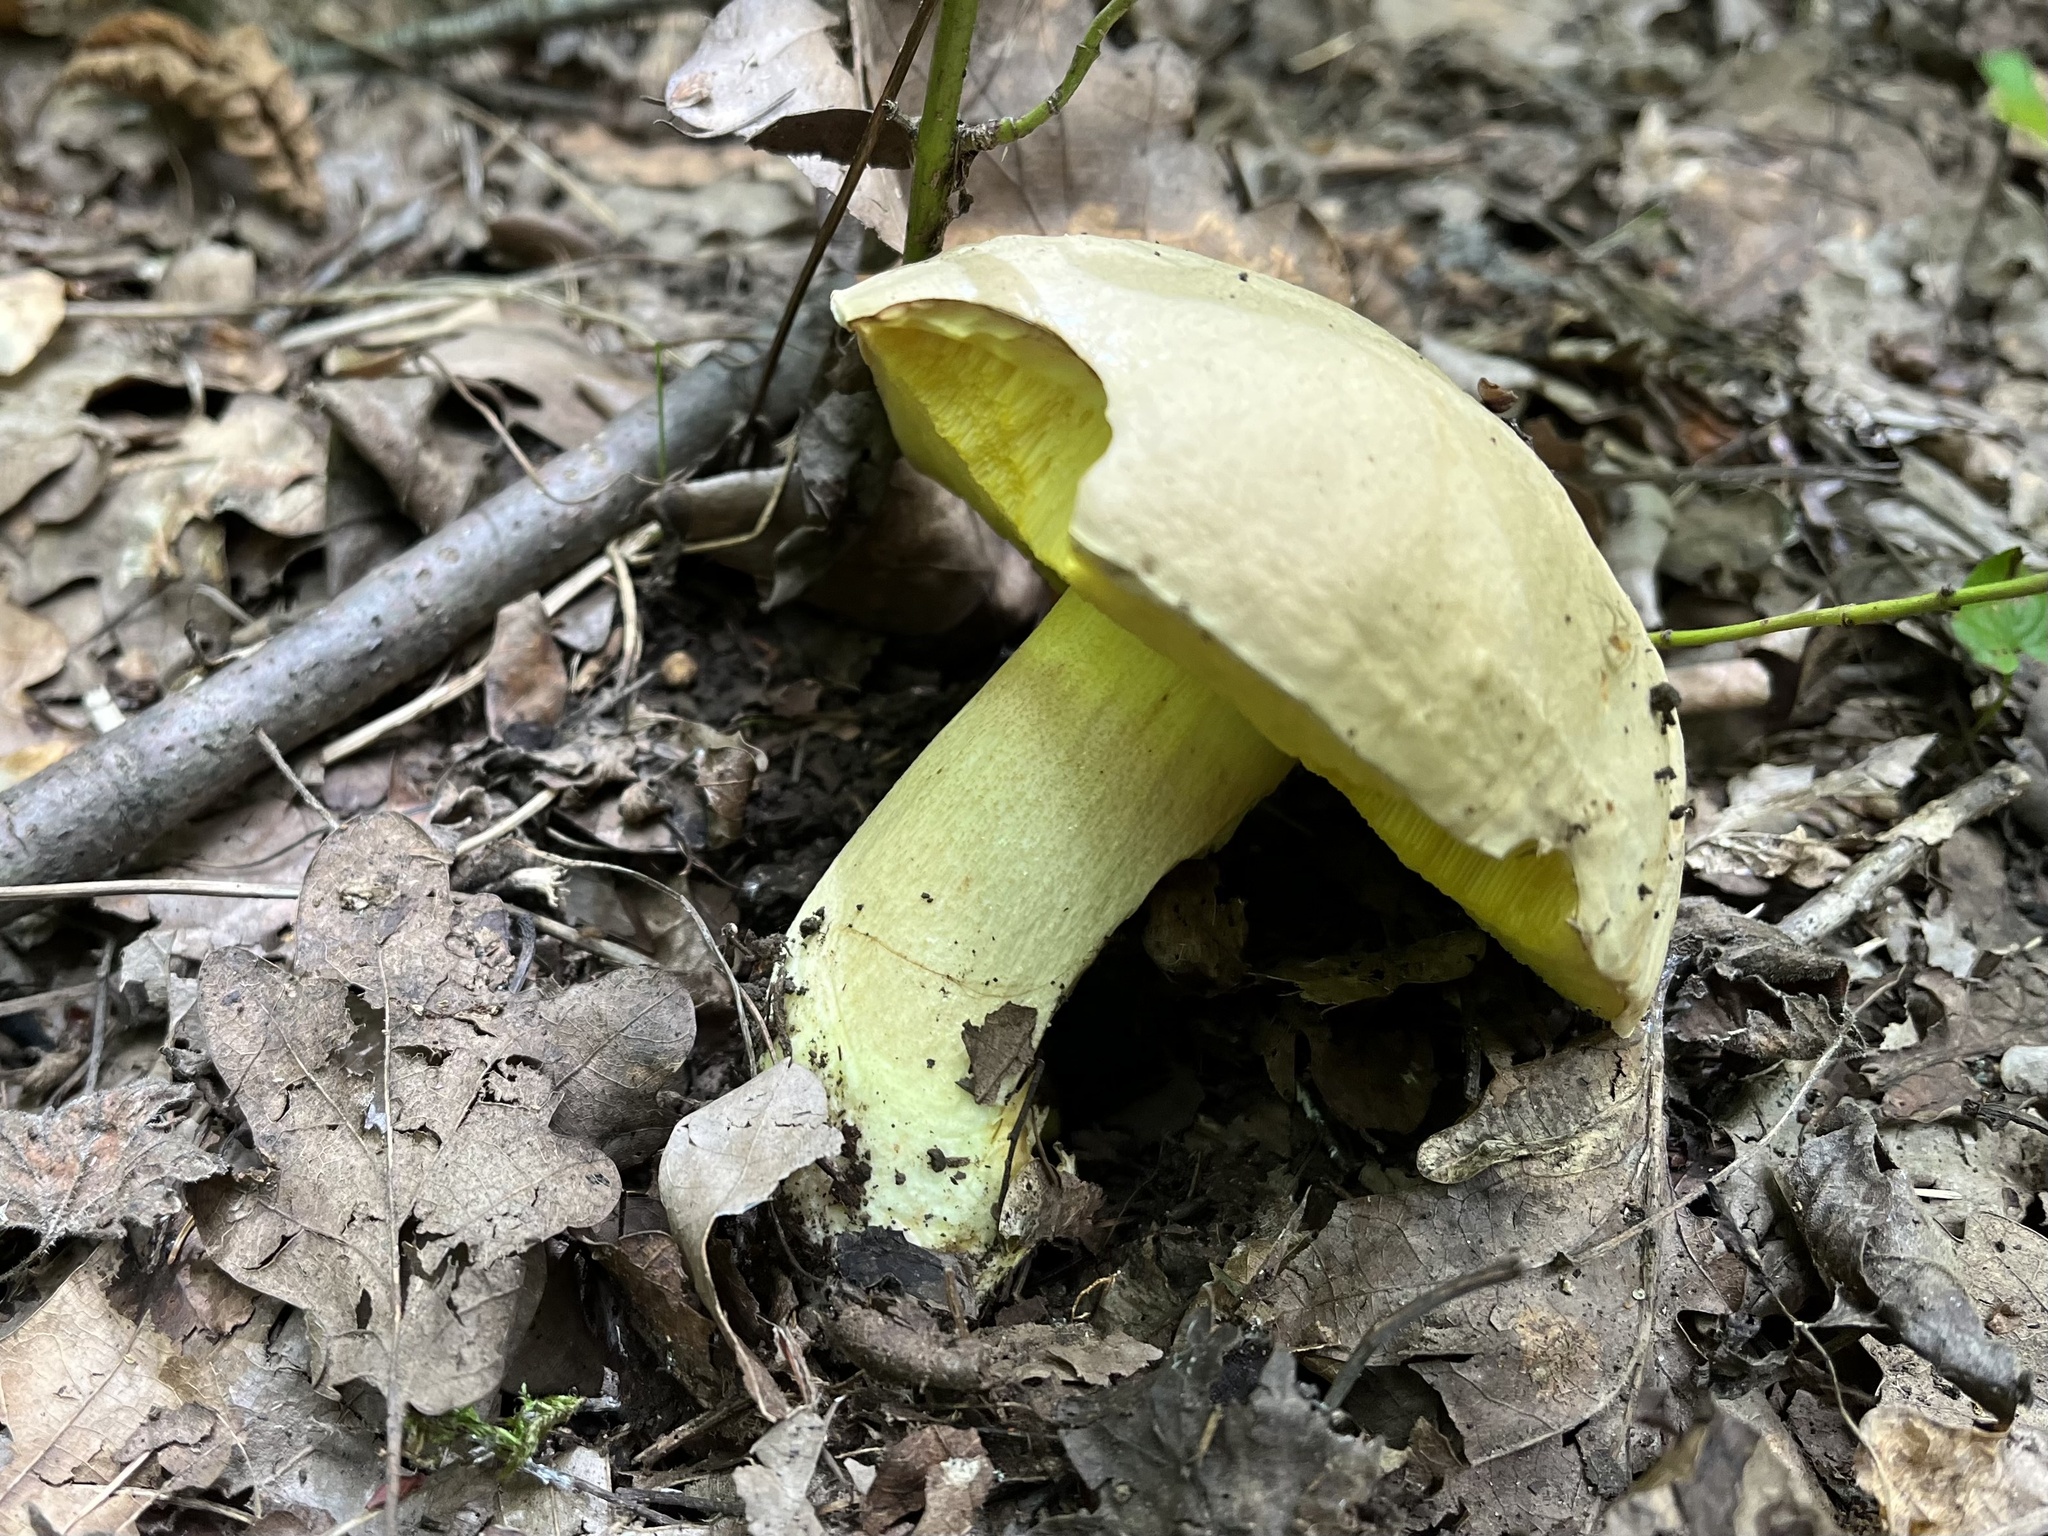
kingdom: Fungi
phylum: Basidiomycota
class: Agaricomycetes
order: Boletales
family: Boletaceae
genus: Hemileccinum
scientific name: Hemileccinum impolitum
